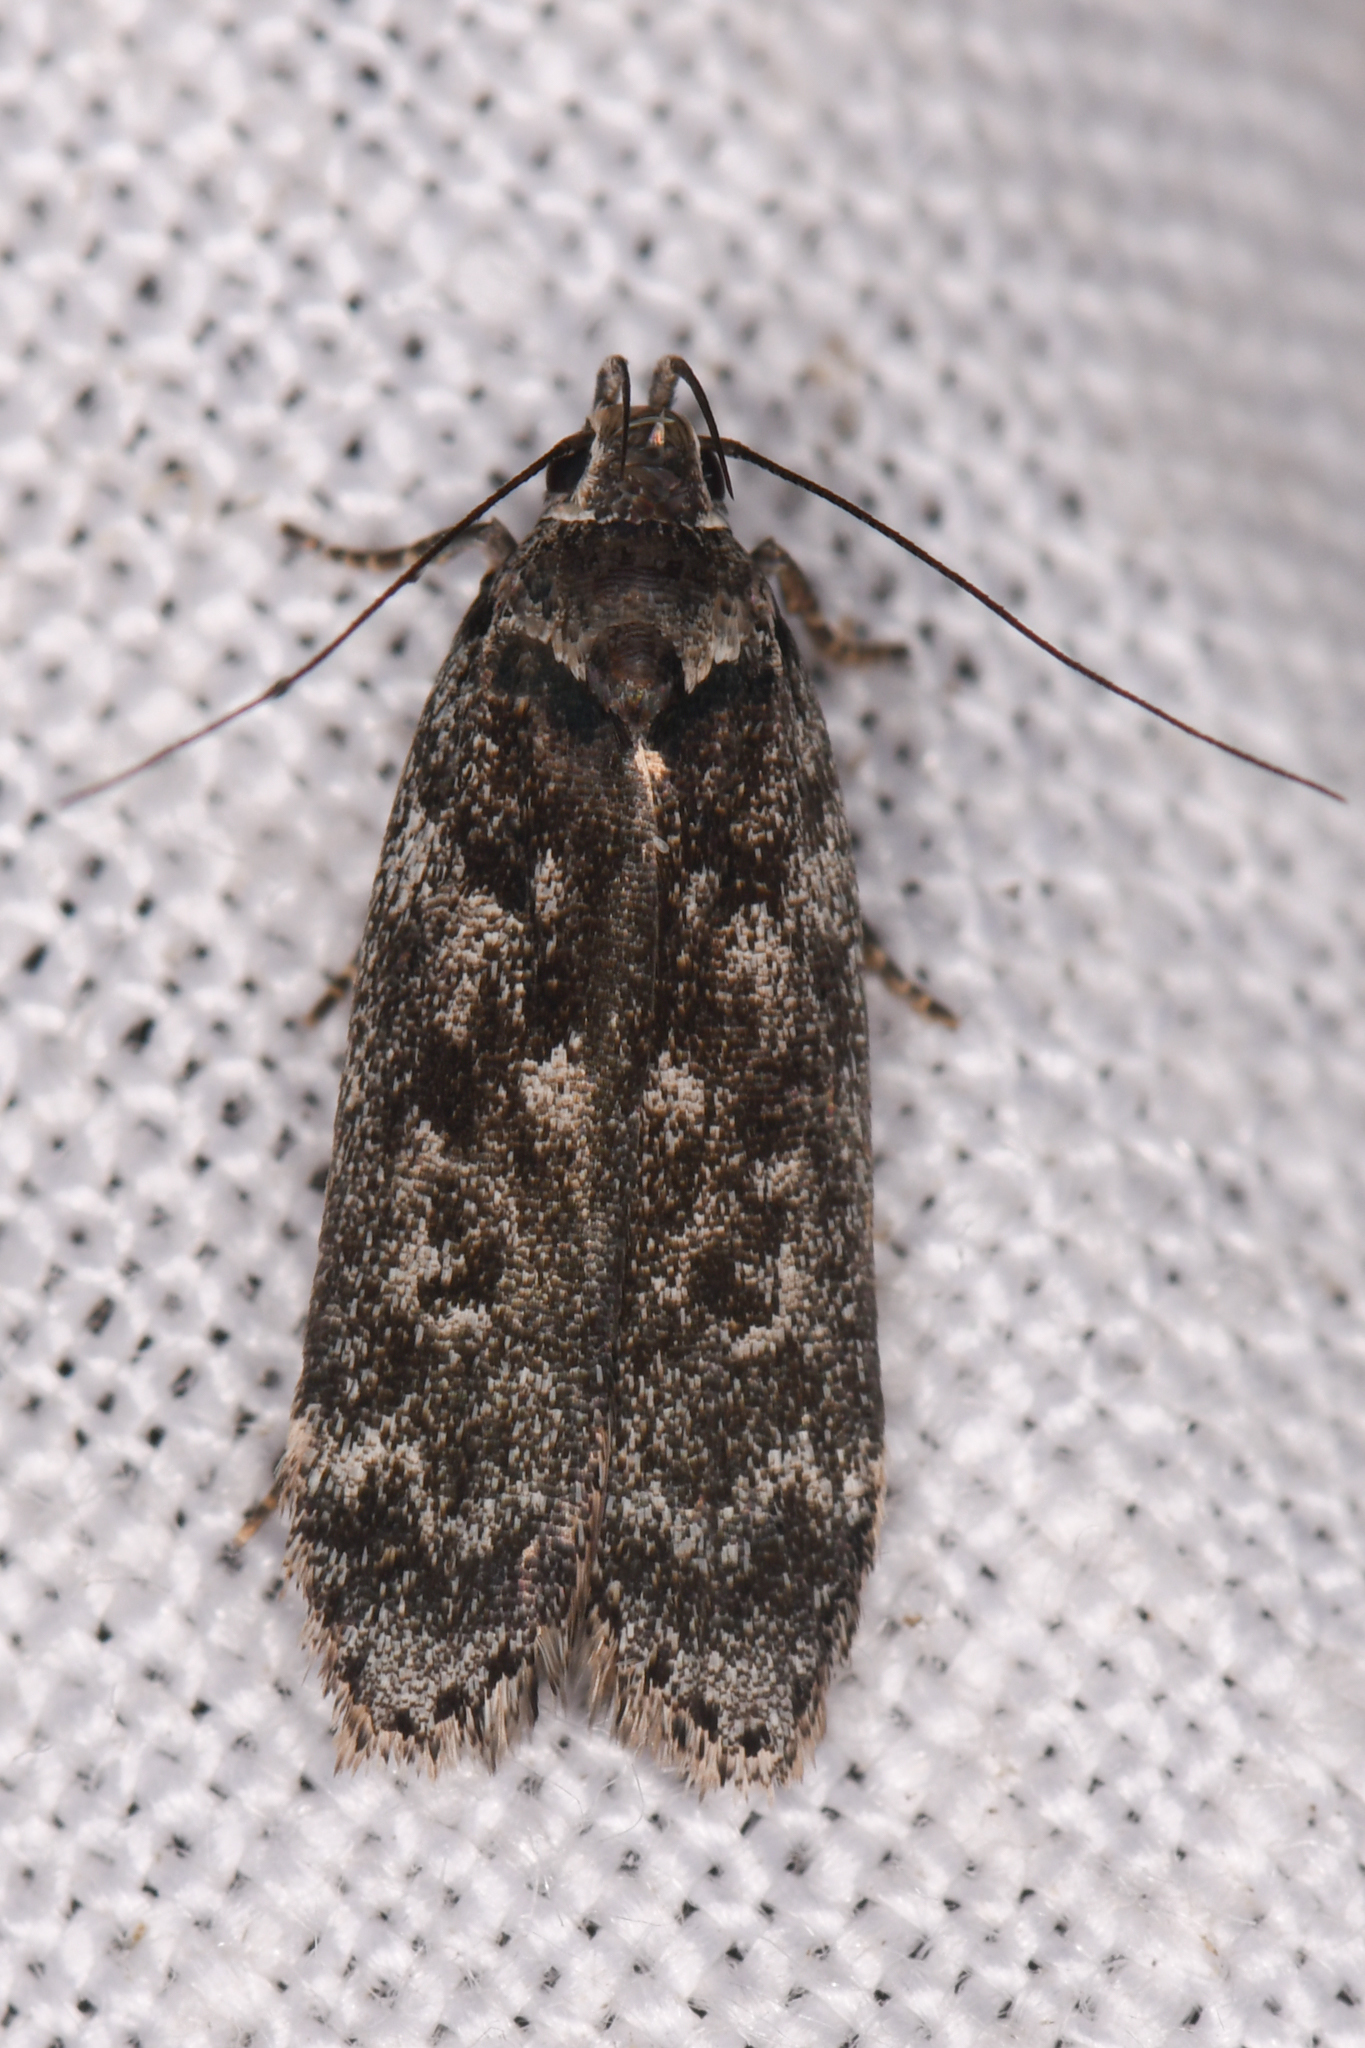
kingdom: Animalia
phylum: Arthropoda
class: Insecta
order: Lepidoptera
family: Gelechiidae
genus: Anacampsis
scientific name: Anacampsis niveopulvella
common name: Pale-headed aspen leafroller moth
